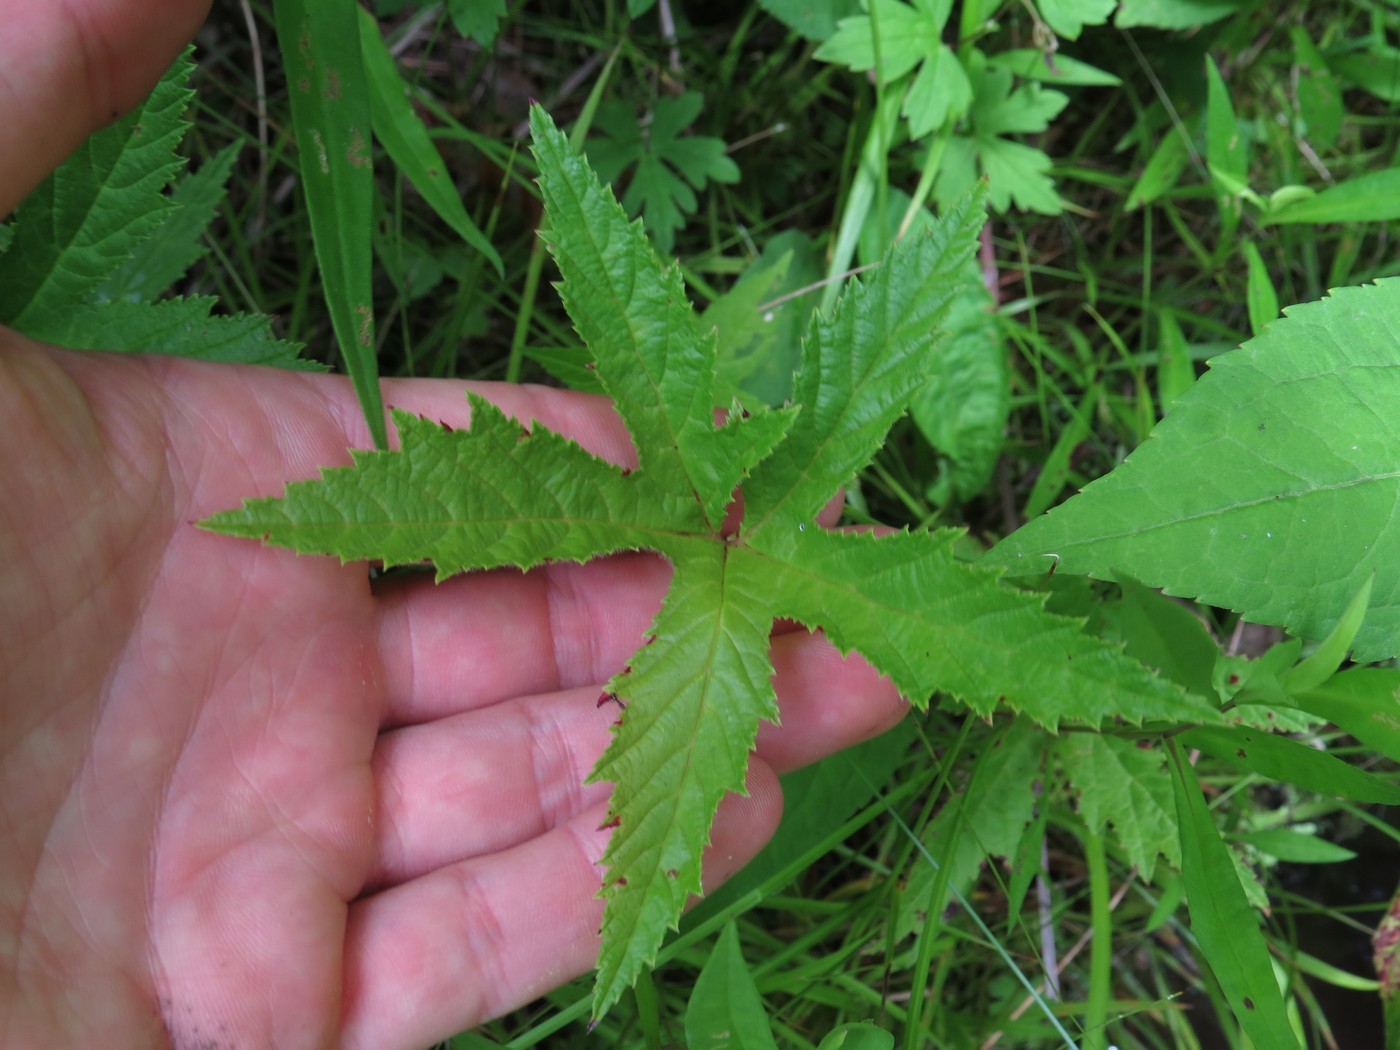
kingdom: Plantae
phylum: Tracheophyta
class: Magnoliopsida
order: Rosales
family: Rosaceae
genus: Filipendula
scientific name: Filipendula rubra
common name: Queen-of-the-prairie
